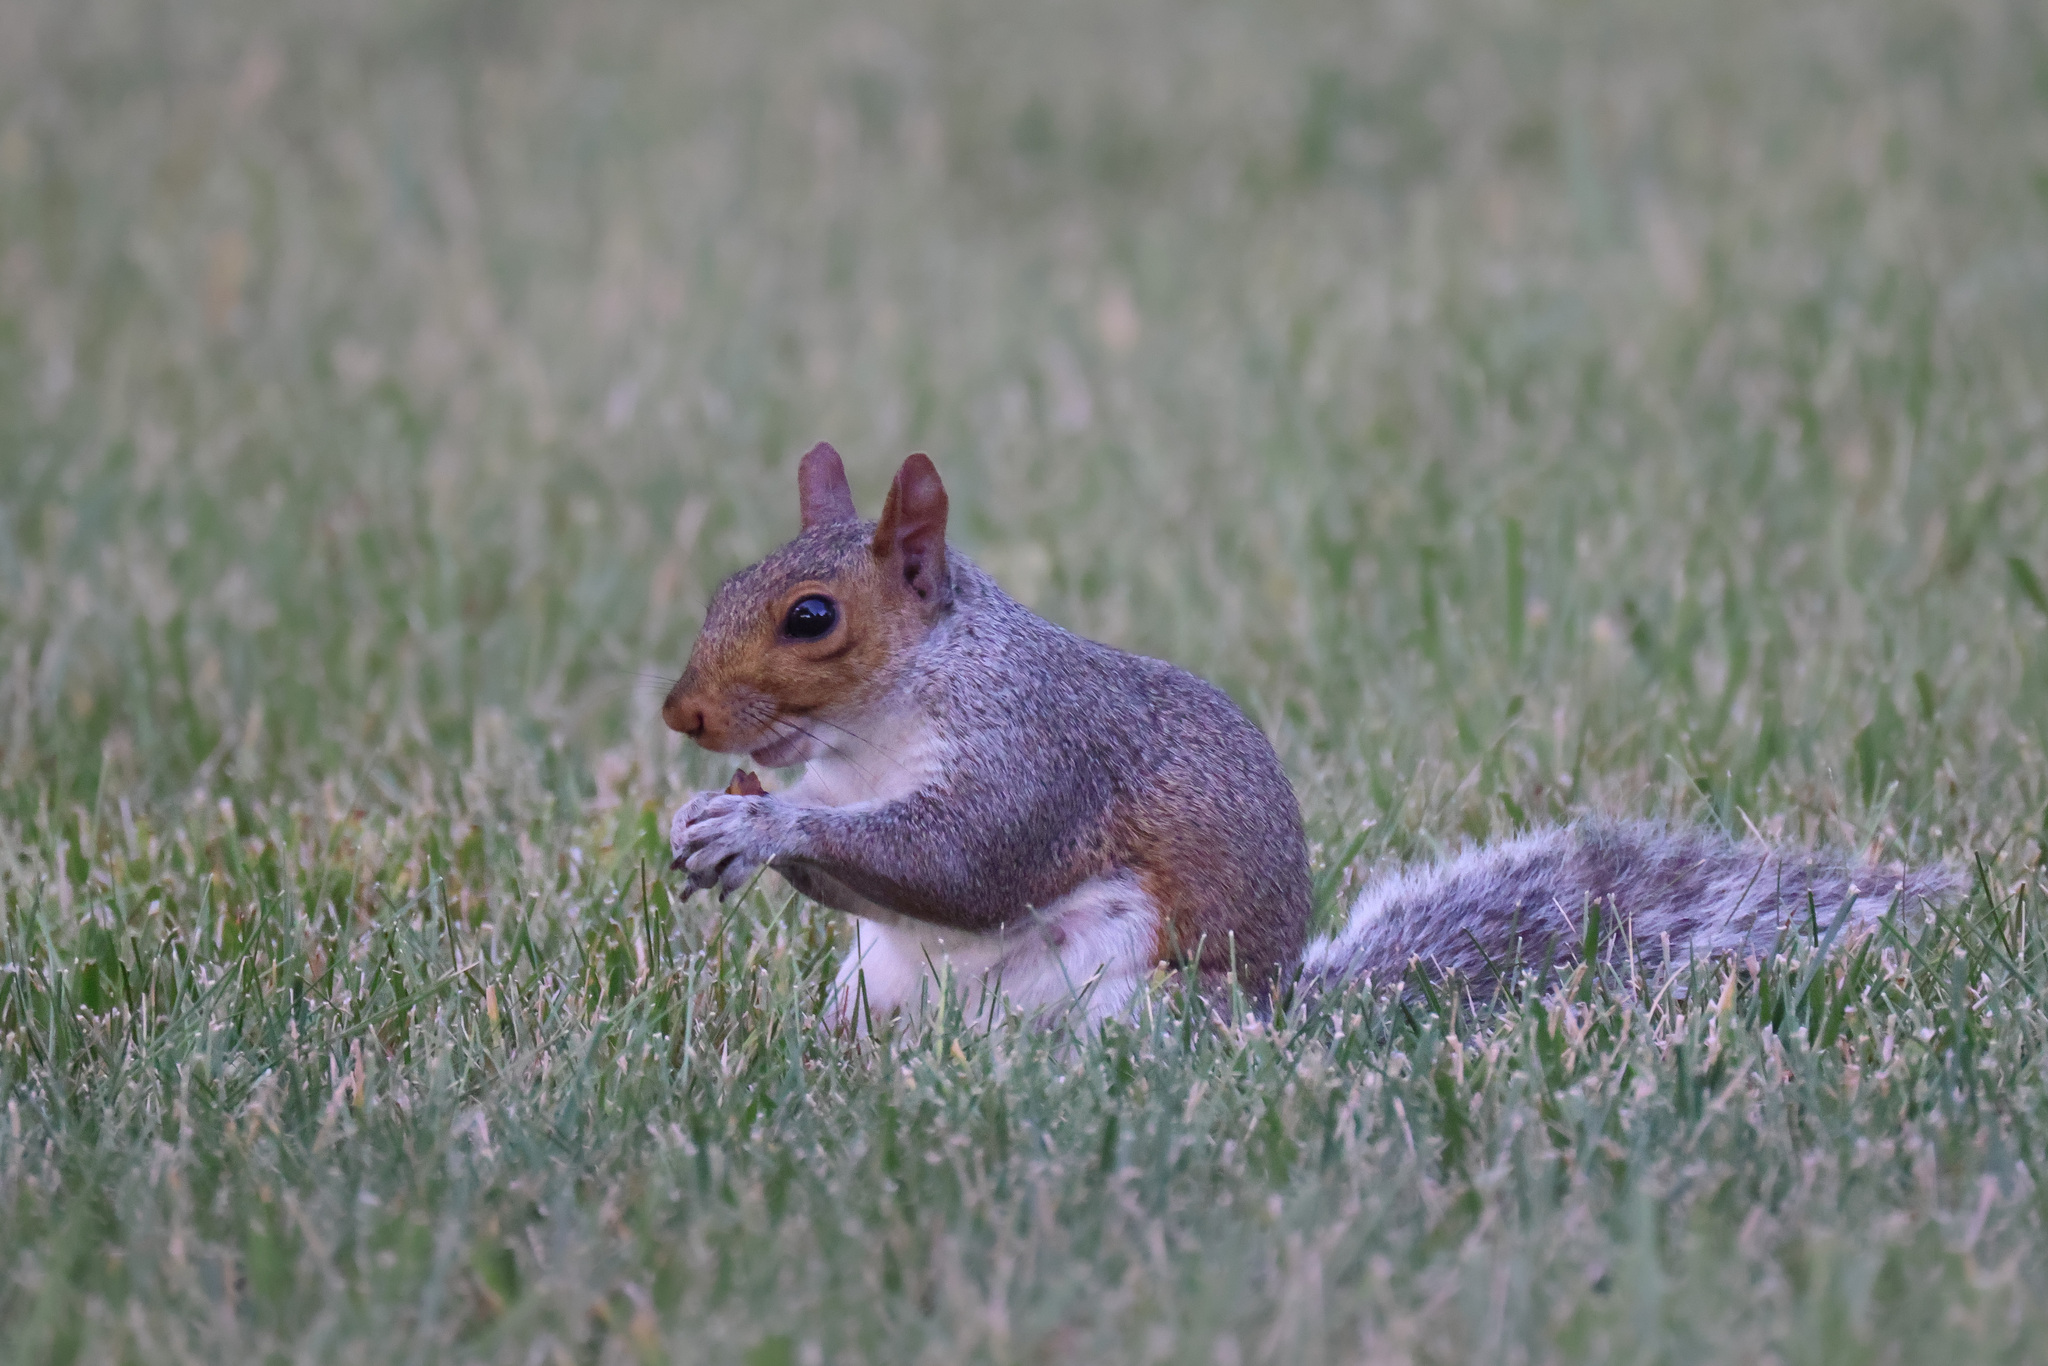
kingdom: Animalia
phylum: Chordata
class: Mammalia
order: Rodentia
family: Sciuridae
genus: Sciurus
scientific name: Sciurus carolinensis
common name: Eastern gray squirrel
